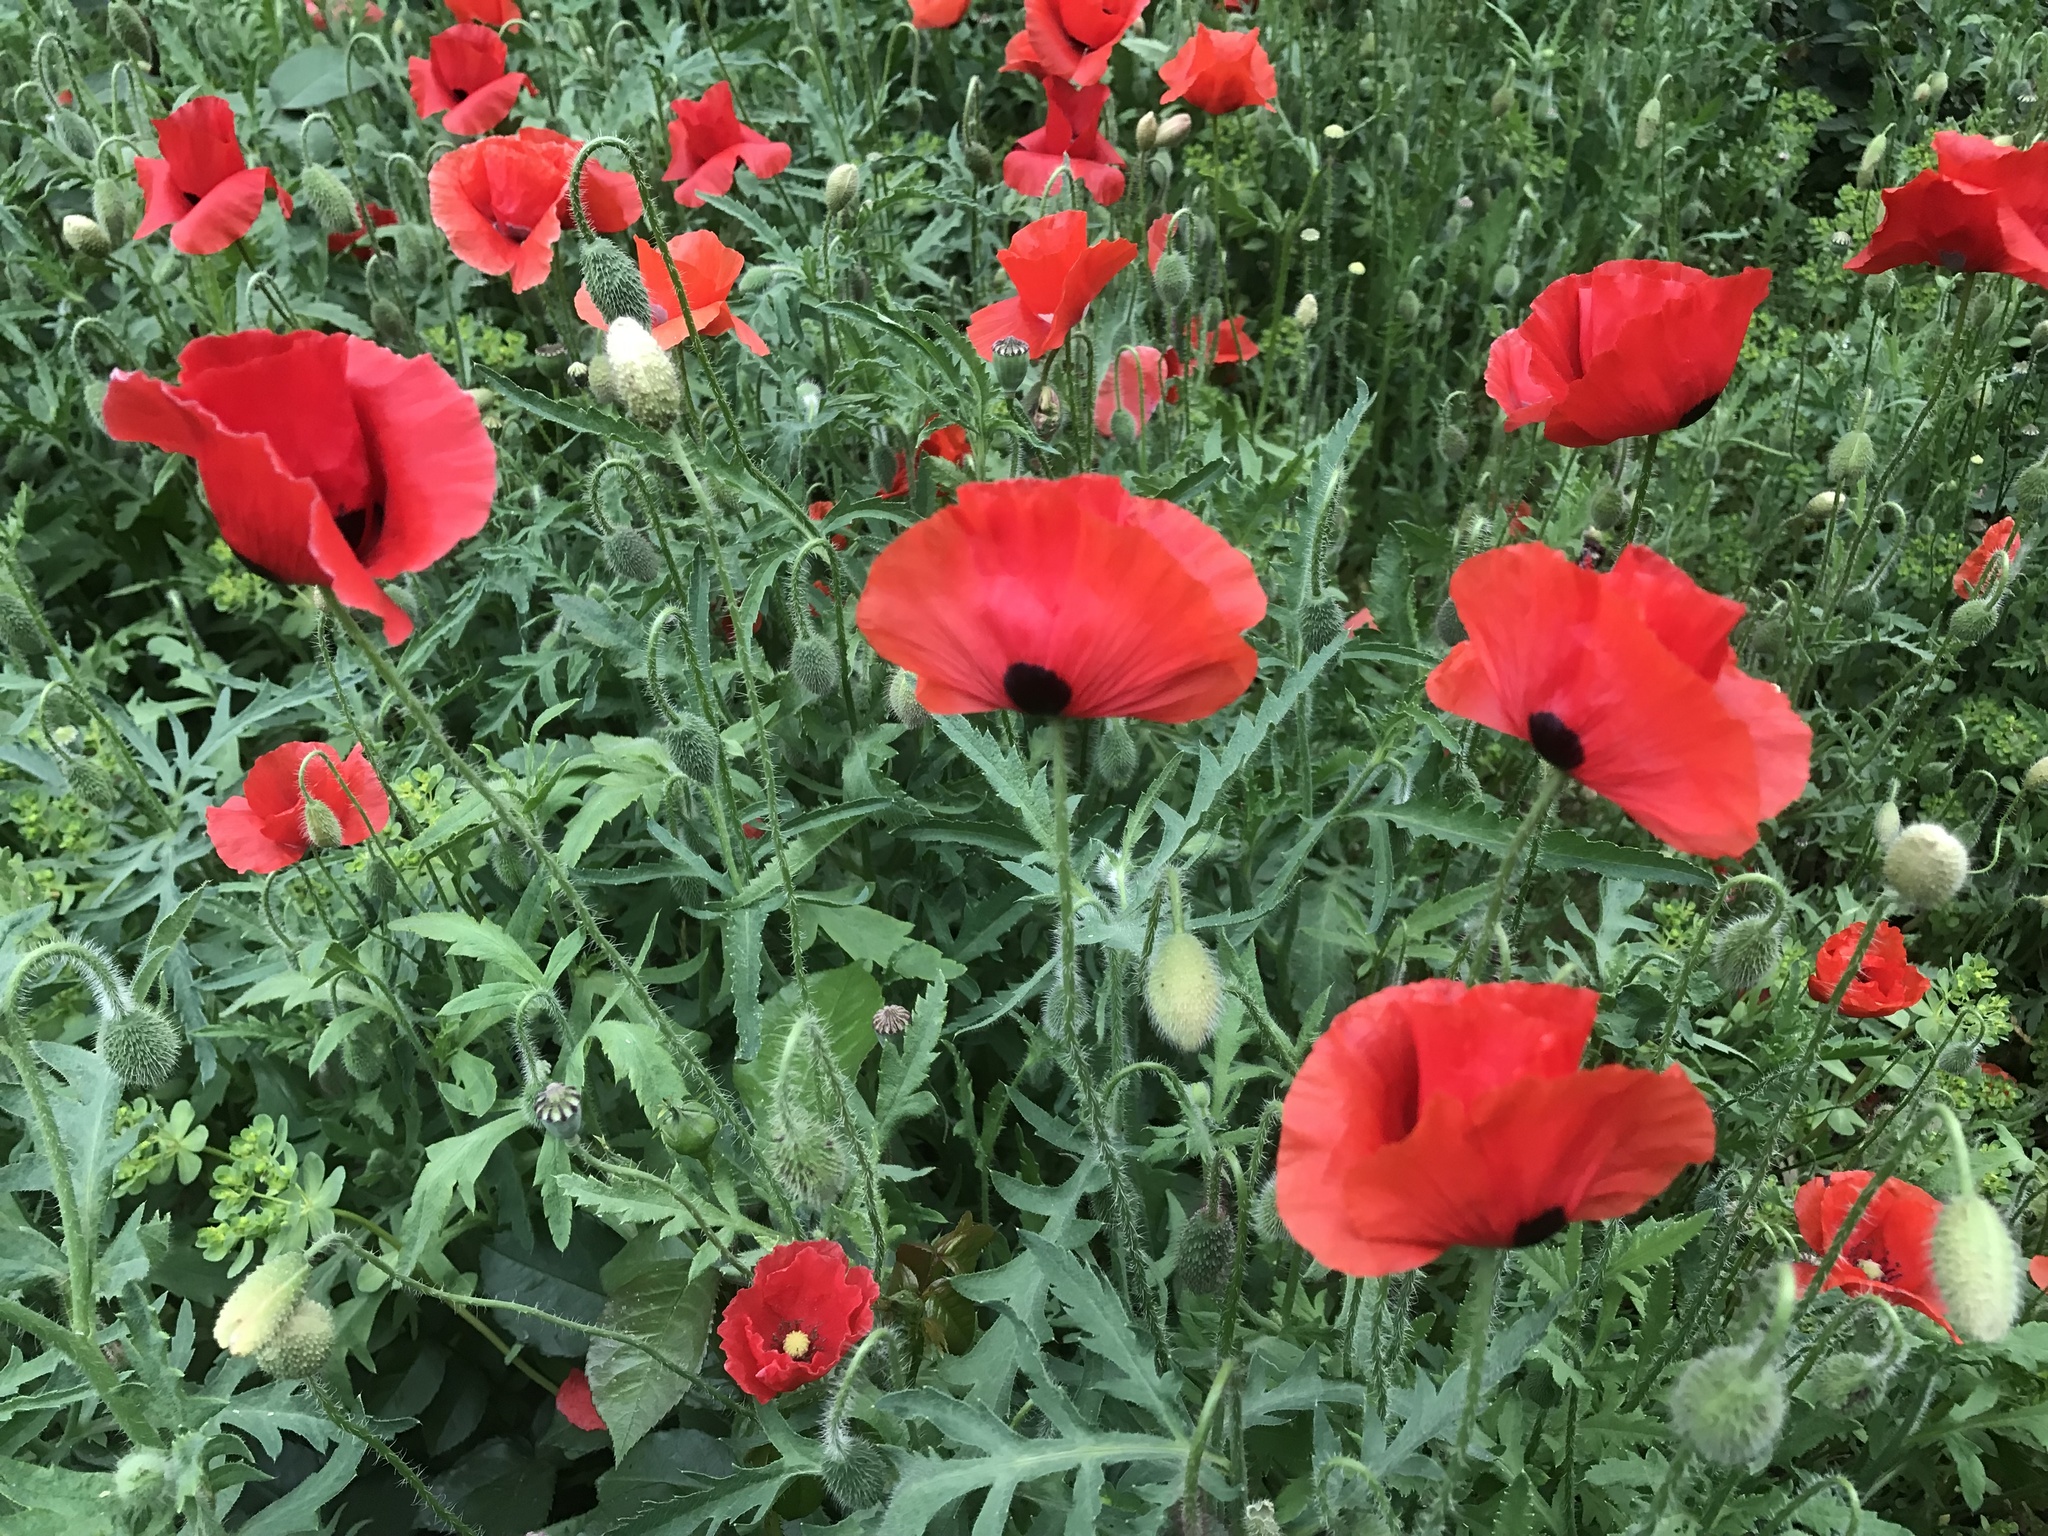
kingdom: Plantae
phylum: Tracheophyta
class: Magnoliopsida
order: Ranunculales
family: Papaveraceae
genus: Papaver
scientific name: Papaver rhoeas
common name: Corn poppy
